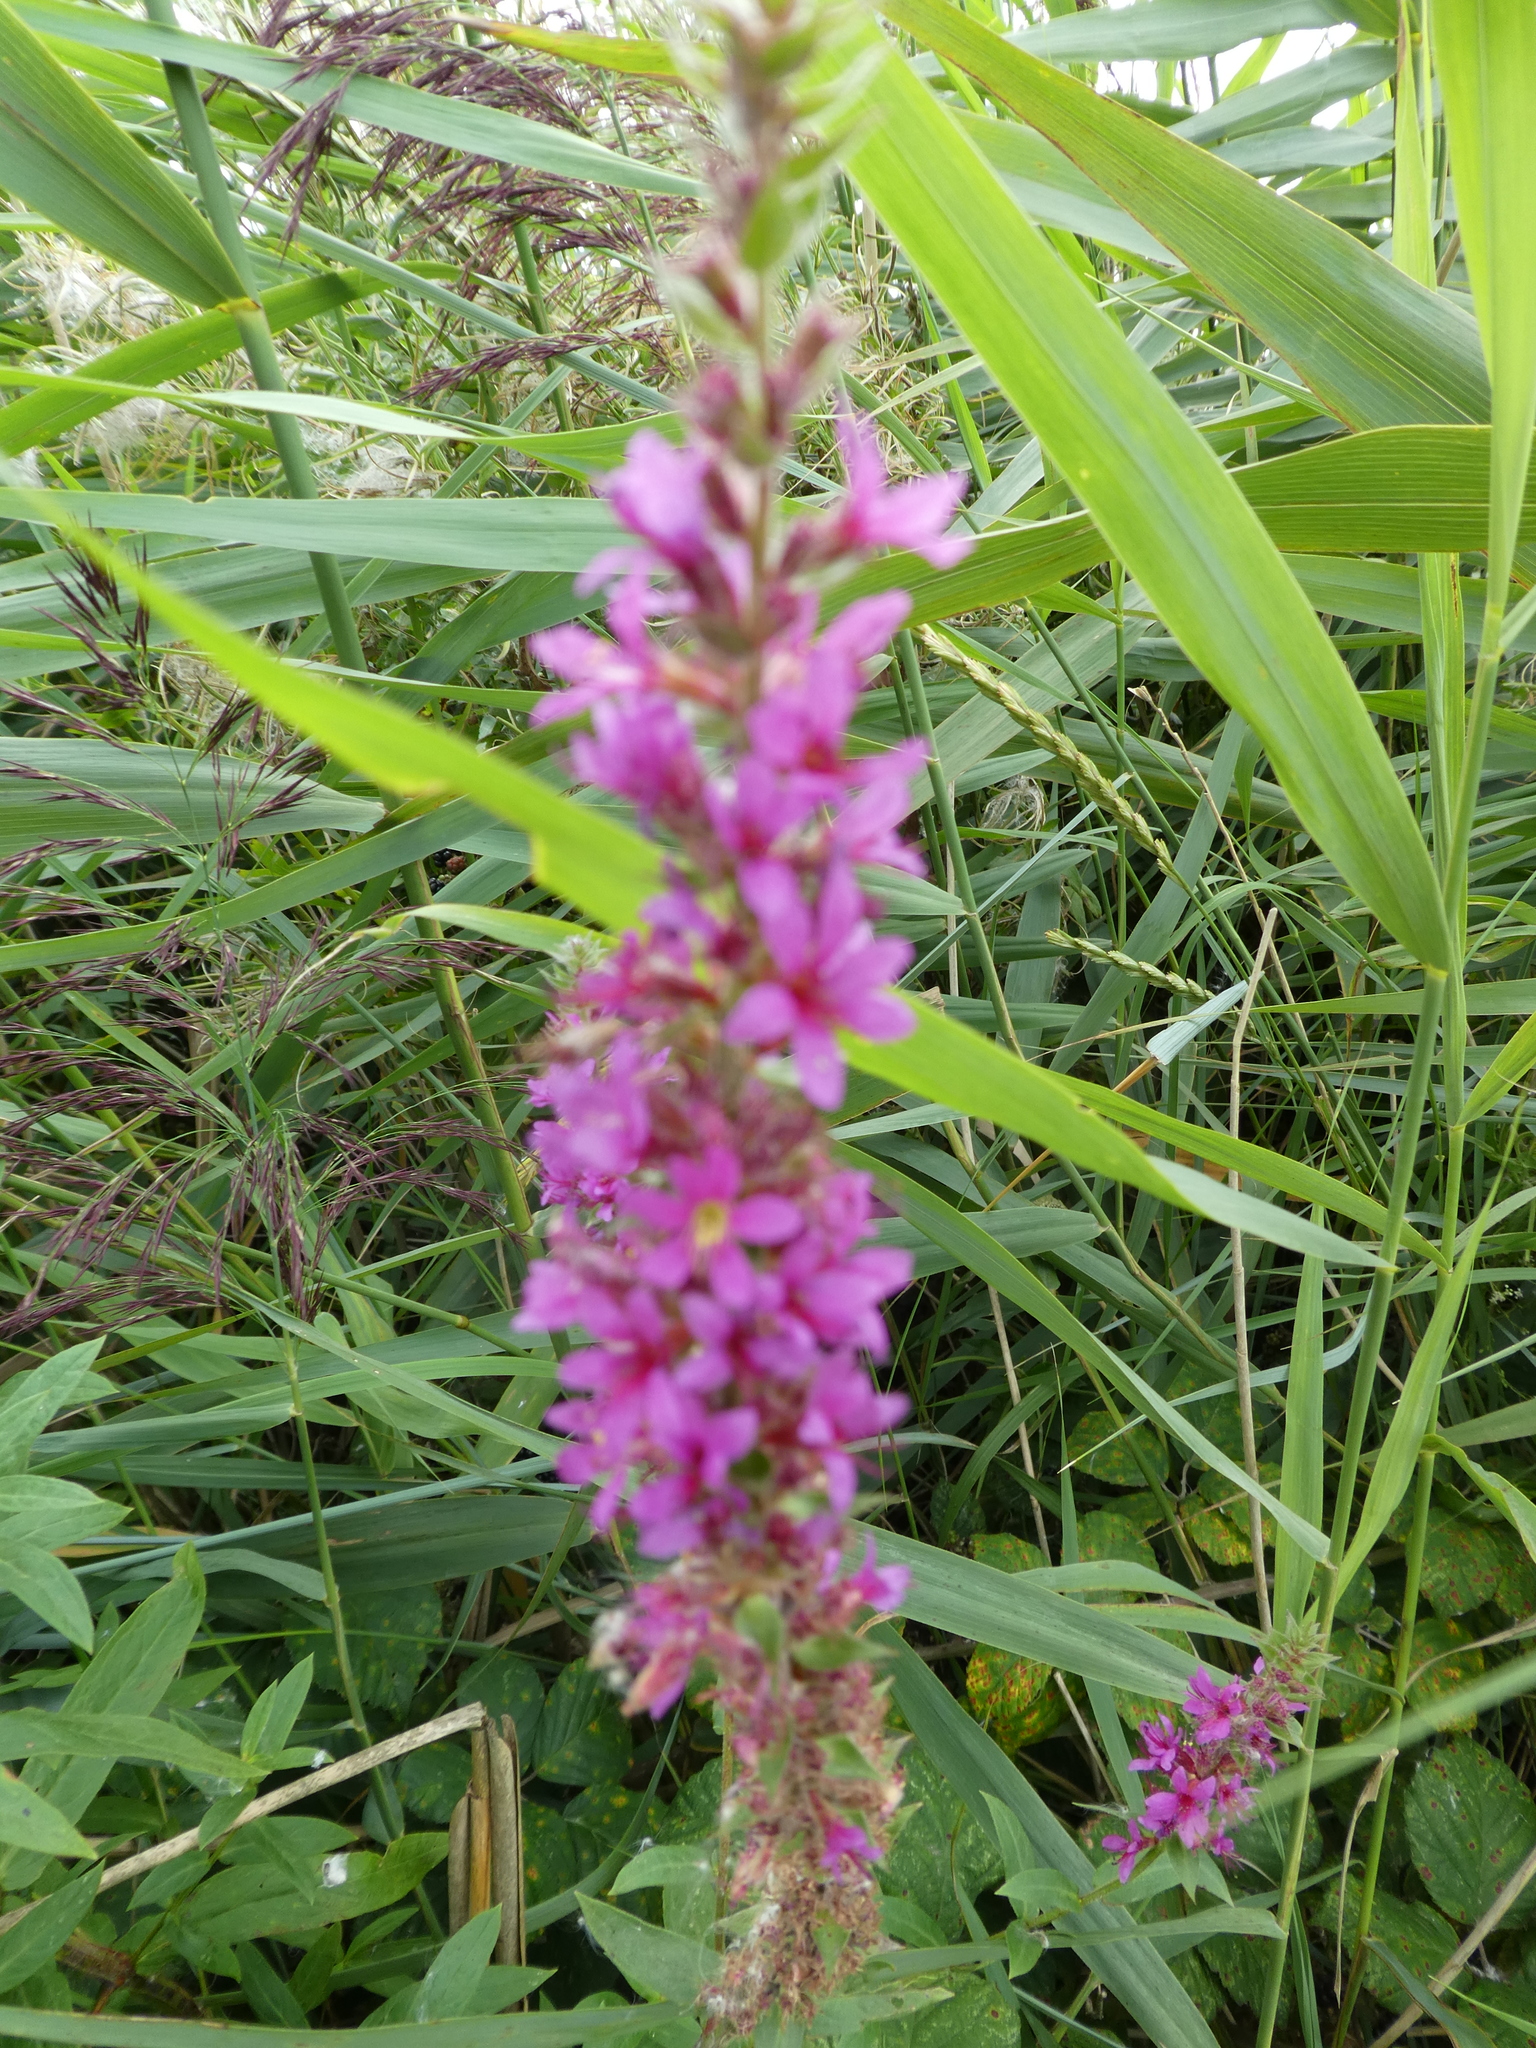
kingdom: Plantae
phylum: Tracheophyta
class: Magnoliopsida
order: Myrtales
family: Lythraceae
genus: Lythrum
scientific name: Lythrum salicaria
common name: Purple loosestrife
